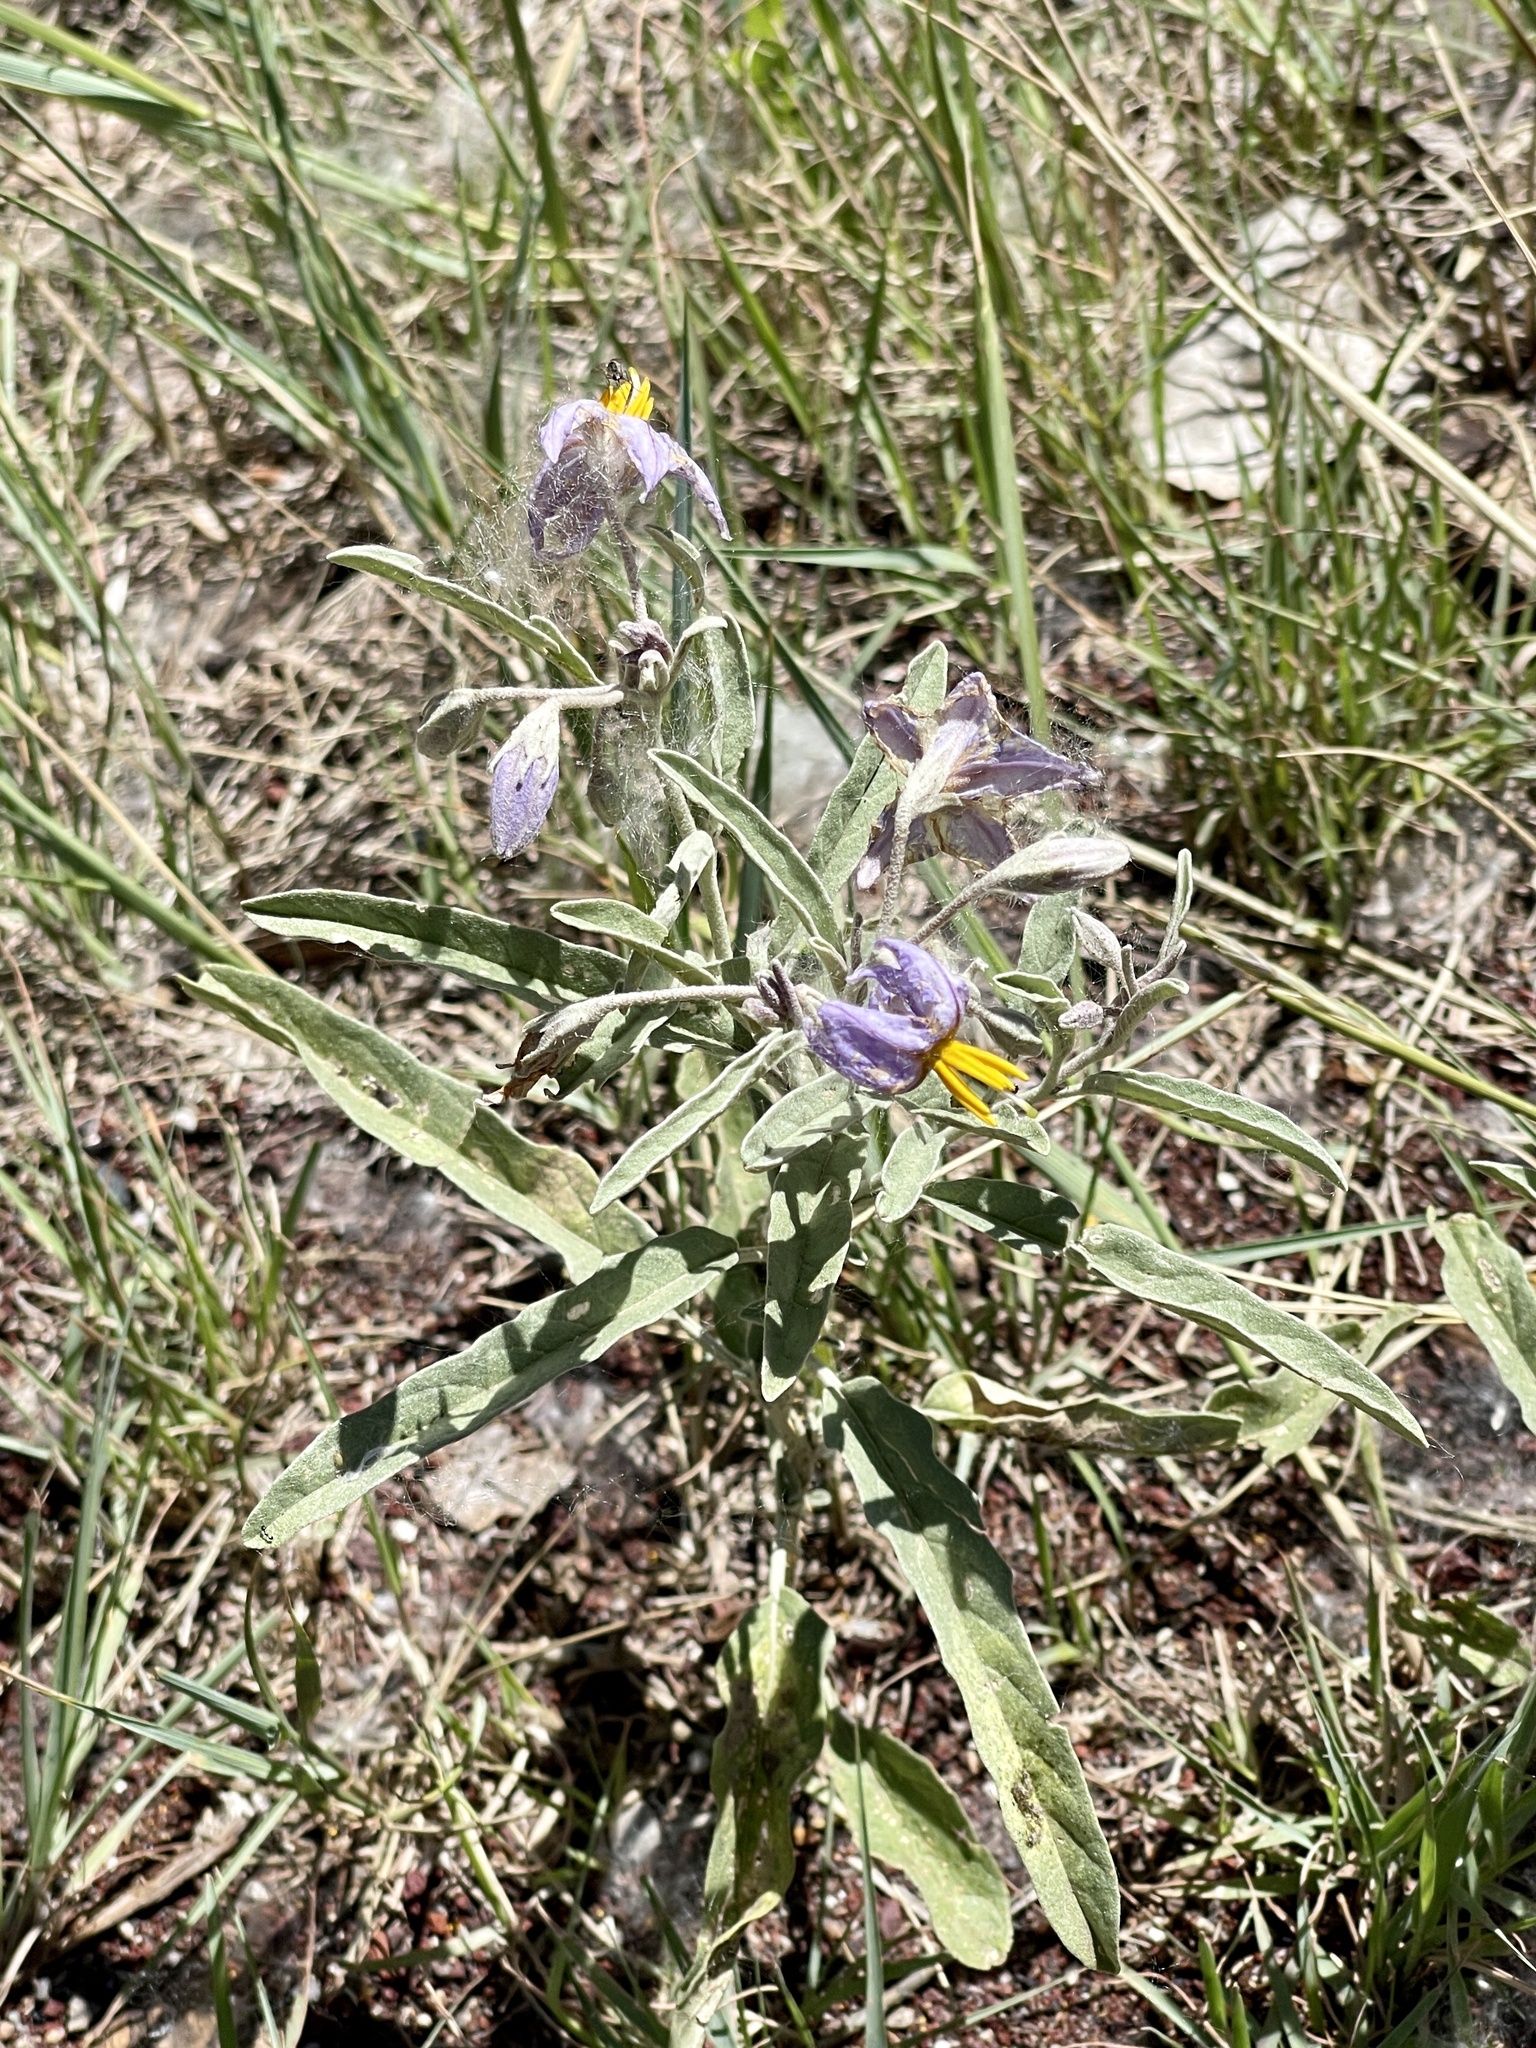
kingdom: Plantae
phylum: Tracheophyta
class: Magnoliopsida
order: Solanales
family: Solanaceae
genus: Solanum
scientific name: Solanum elaeagnifolium
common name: Silverleaf nightshade
